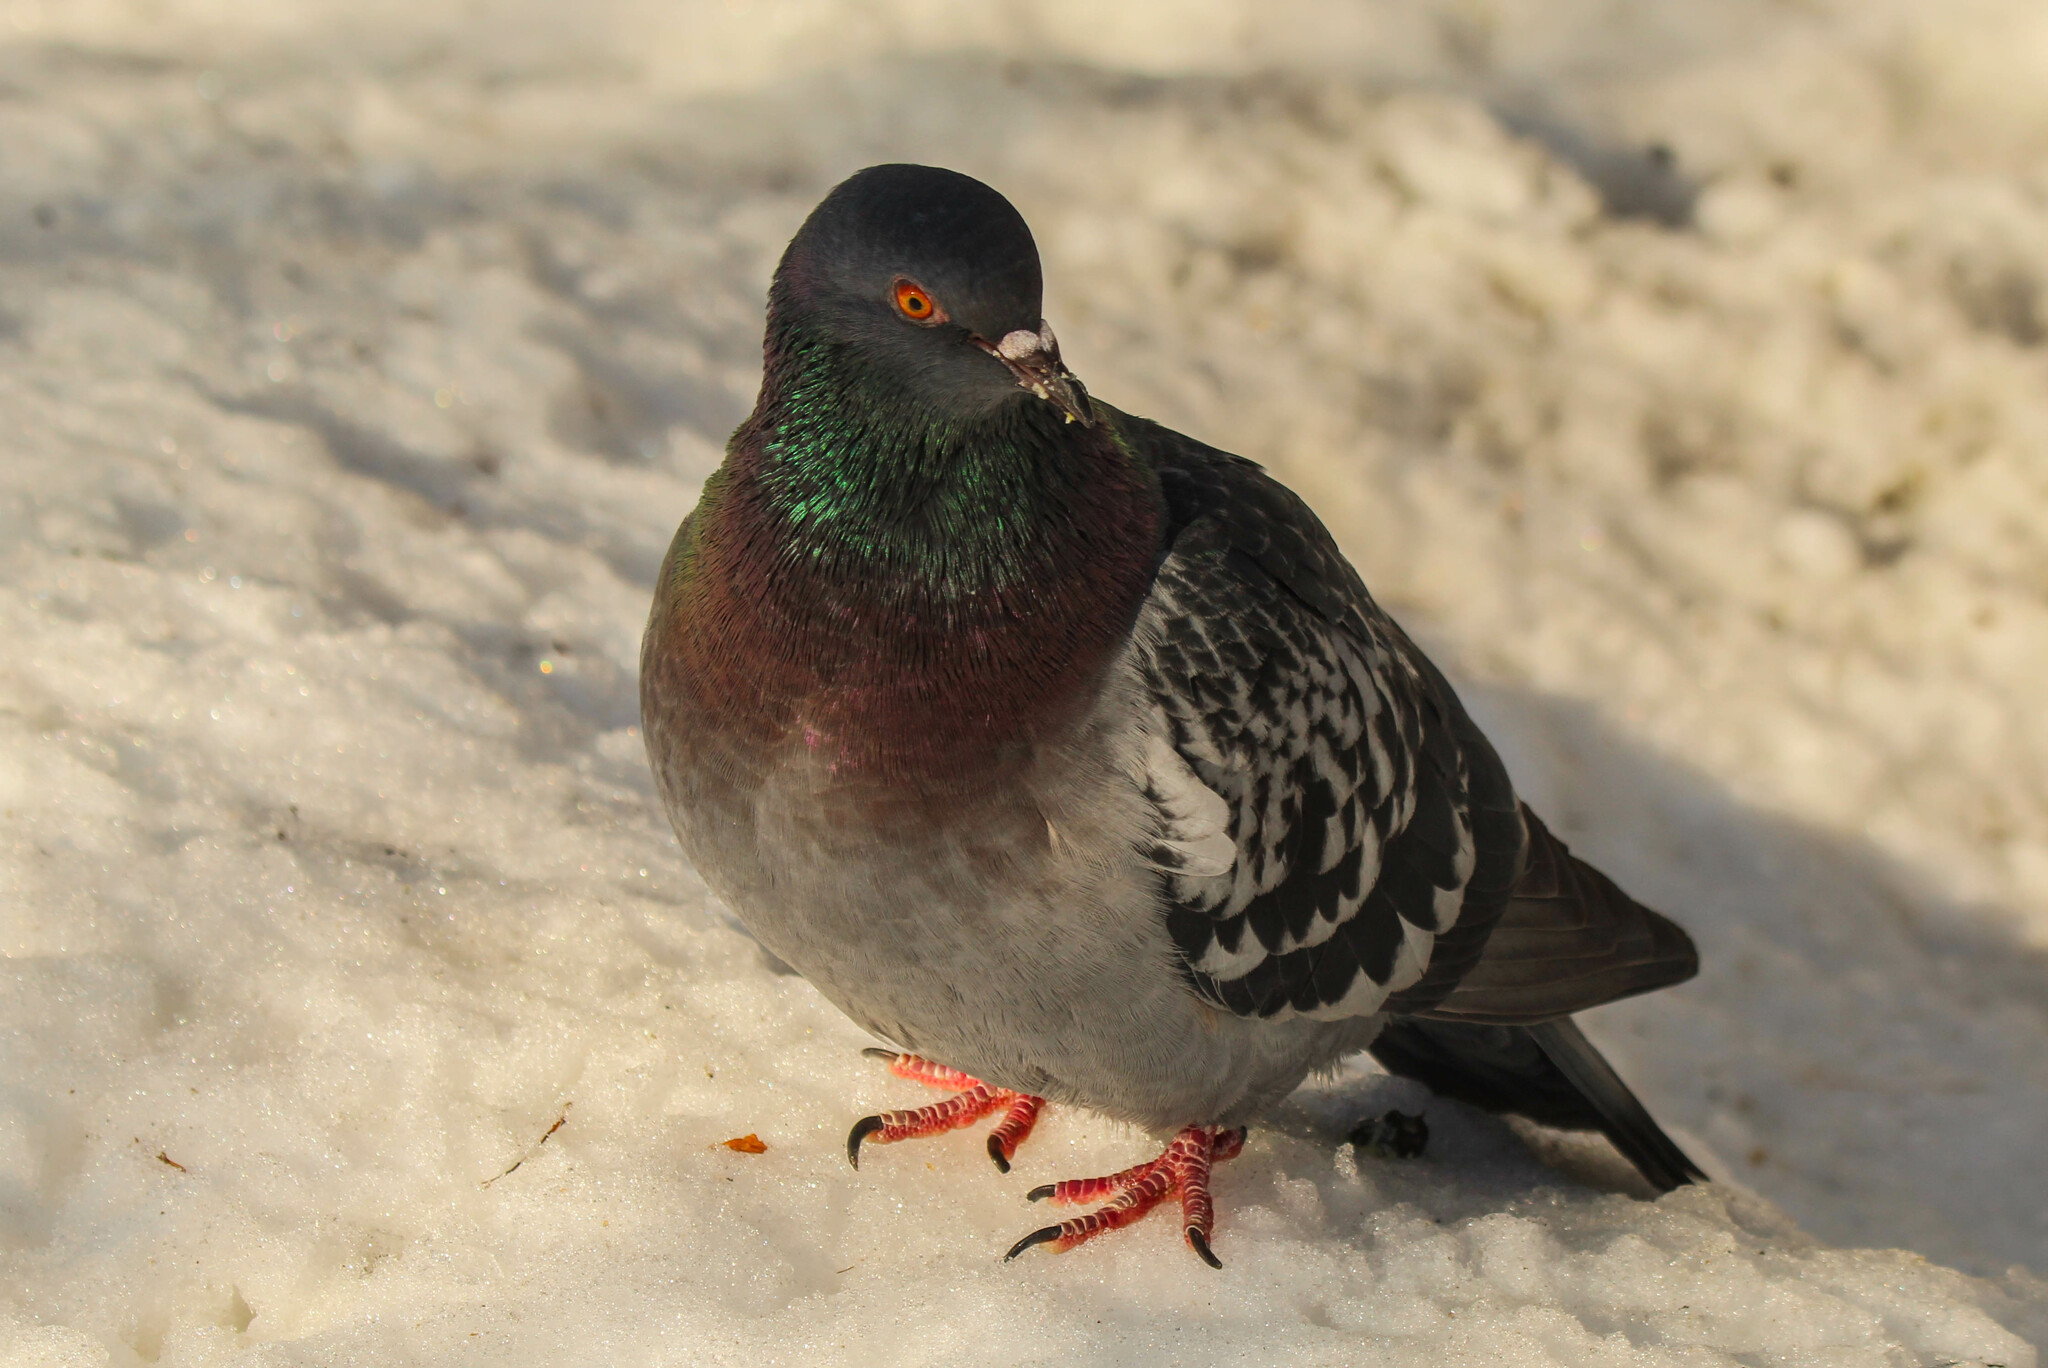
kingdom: Animalia
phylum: Chordata
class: Aves
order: Columbiformes
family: Columbidae
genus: Columba
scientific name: Columba livia
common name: Rock pigeon
